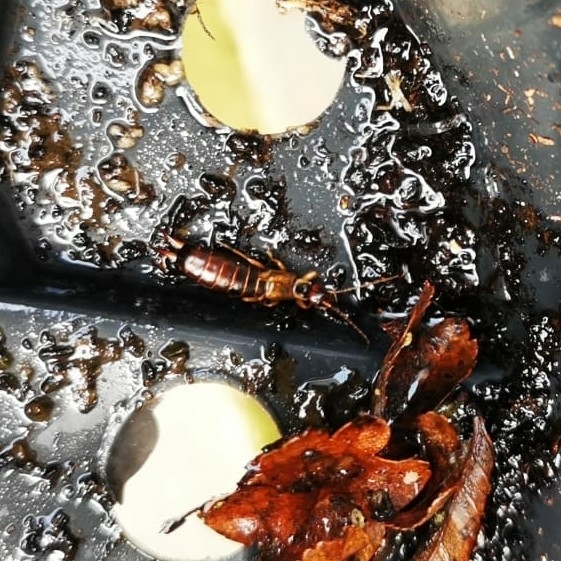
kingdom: Animalia
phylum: Arthropoda
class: Insecta
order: Dermaptera
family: Forficulidae
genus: Forficula
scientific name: Forficula
